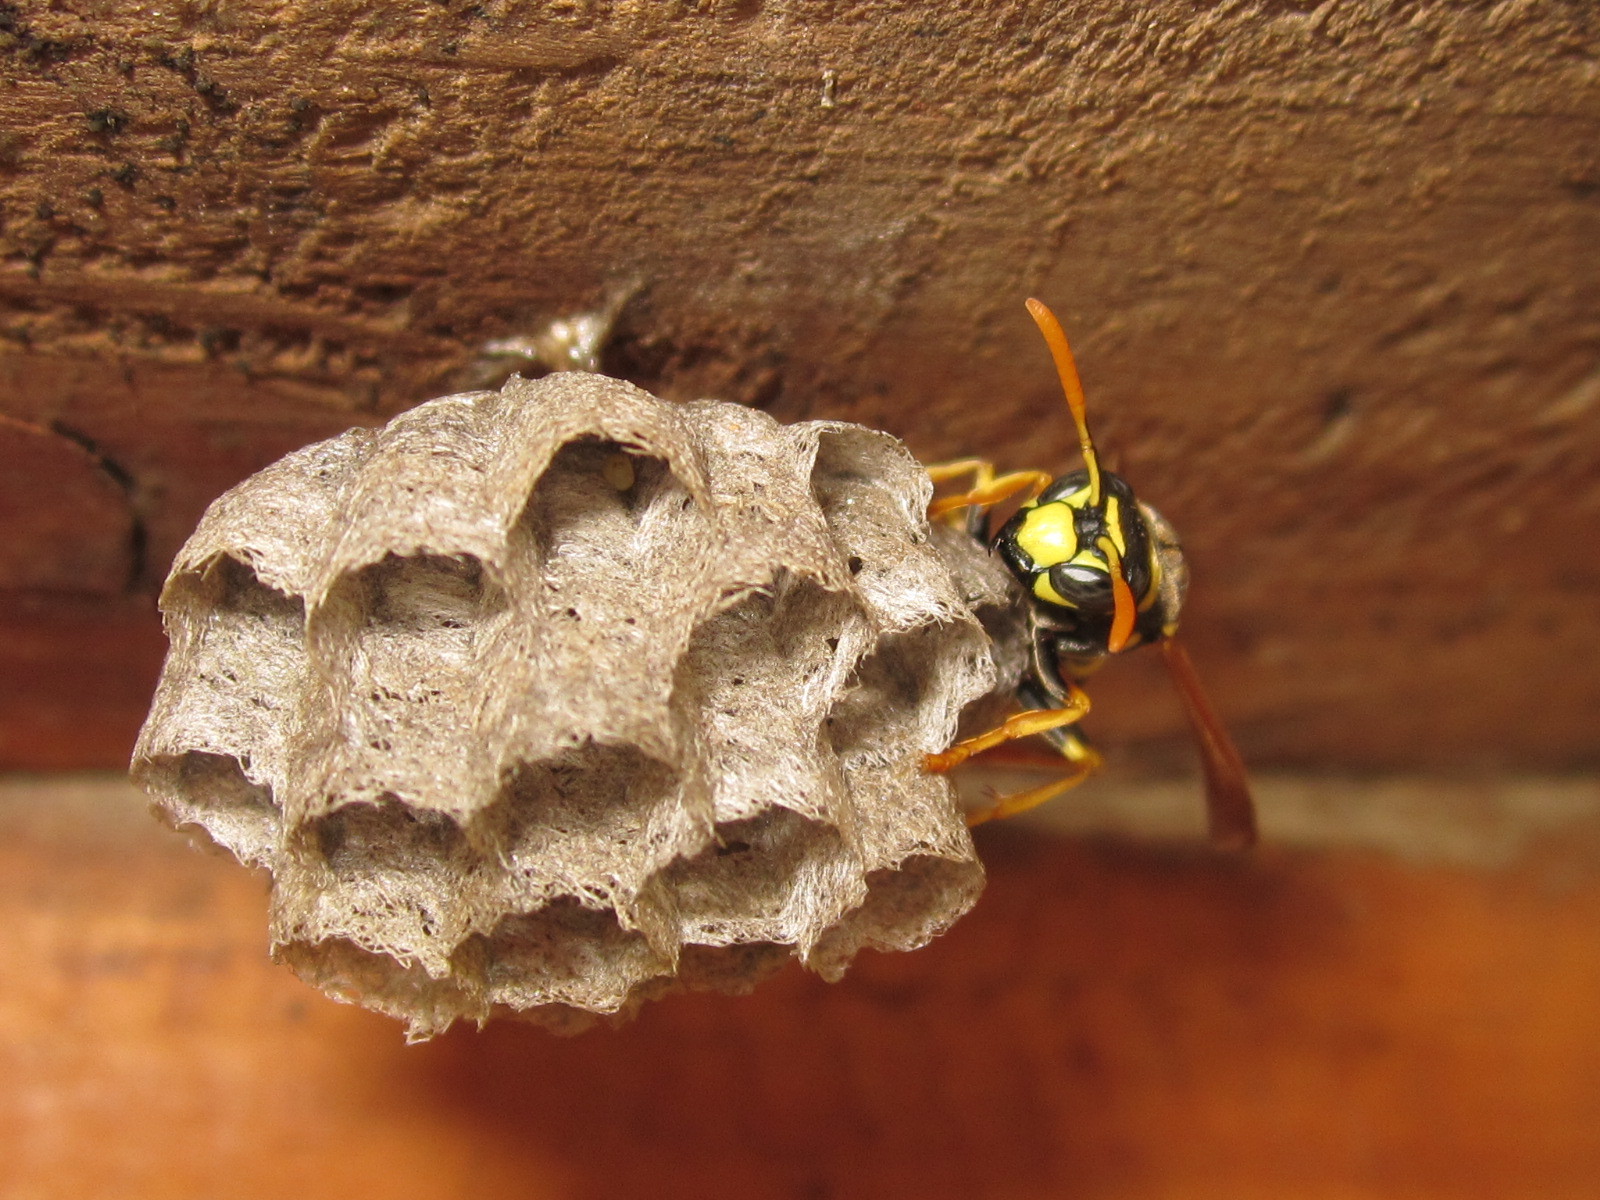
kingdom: Animalia
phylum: Arthropoda
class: Insecta
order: Hymenoptera
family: Eumenidae
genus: Polistes
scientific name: Polistes dominula
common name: Paper wasp
